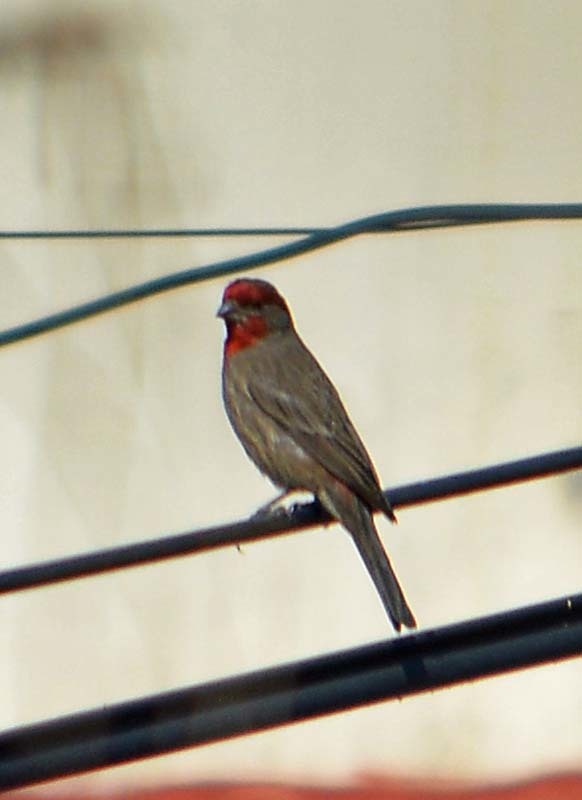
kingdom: Animalia
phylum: Chordata
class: Aves
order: Passeriformes
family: Fringillidae
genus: Haemorhous
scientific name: Haemorhous mexicanus
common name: House finch
